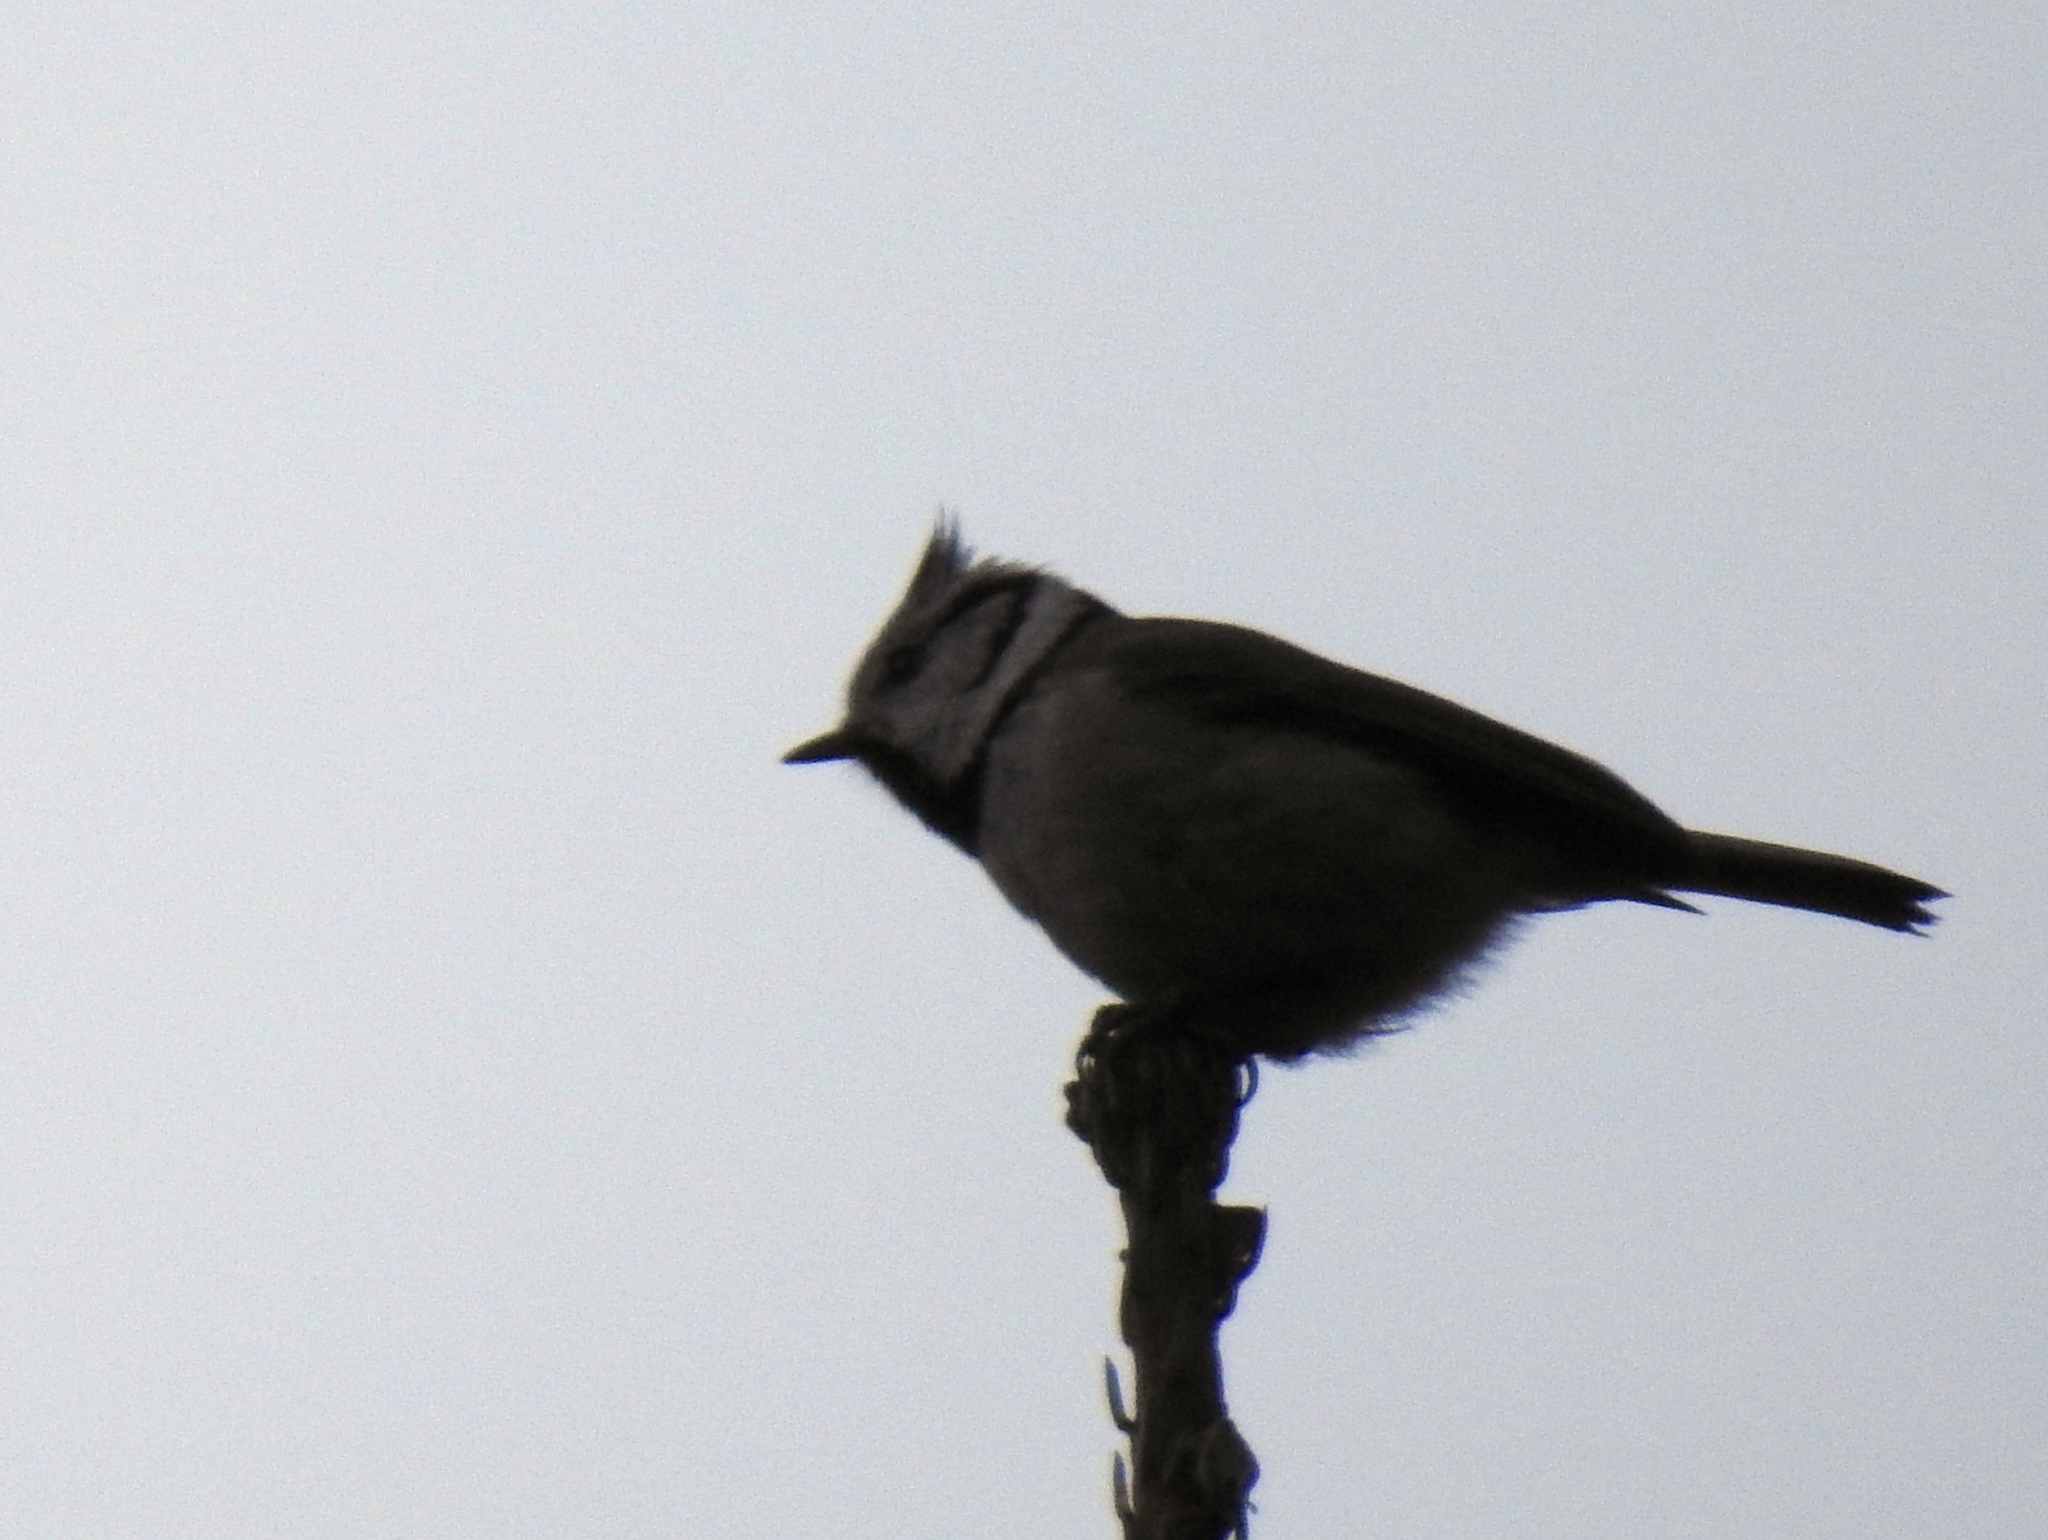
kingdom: Animalia
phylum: Chordata
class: Aves
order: Passeriformes
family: Paridae
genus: Lophophanes
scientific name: Lophophanes cristatus
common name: European crested tit
